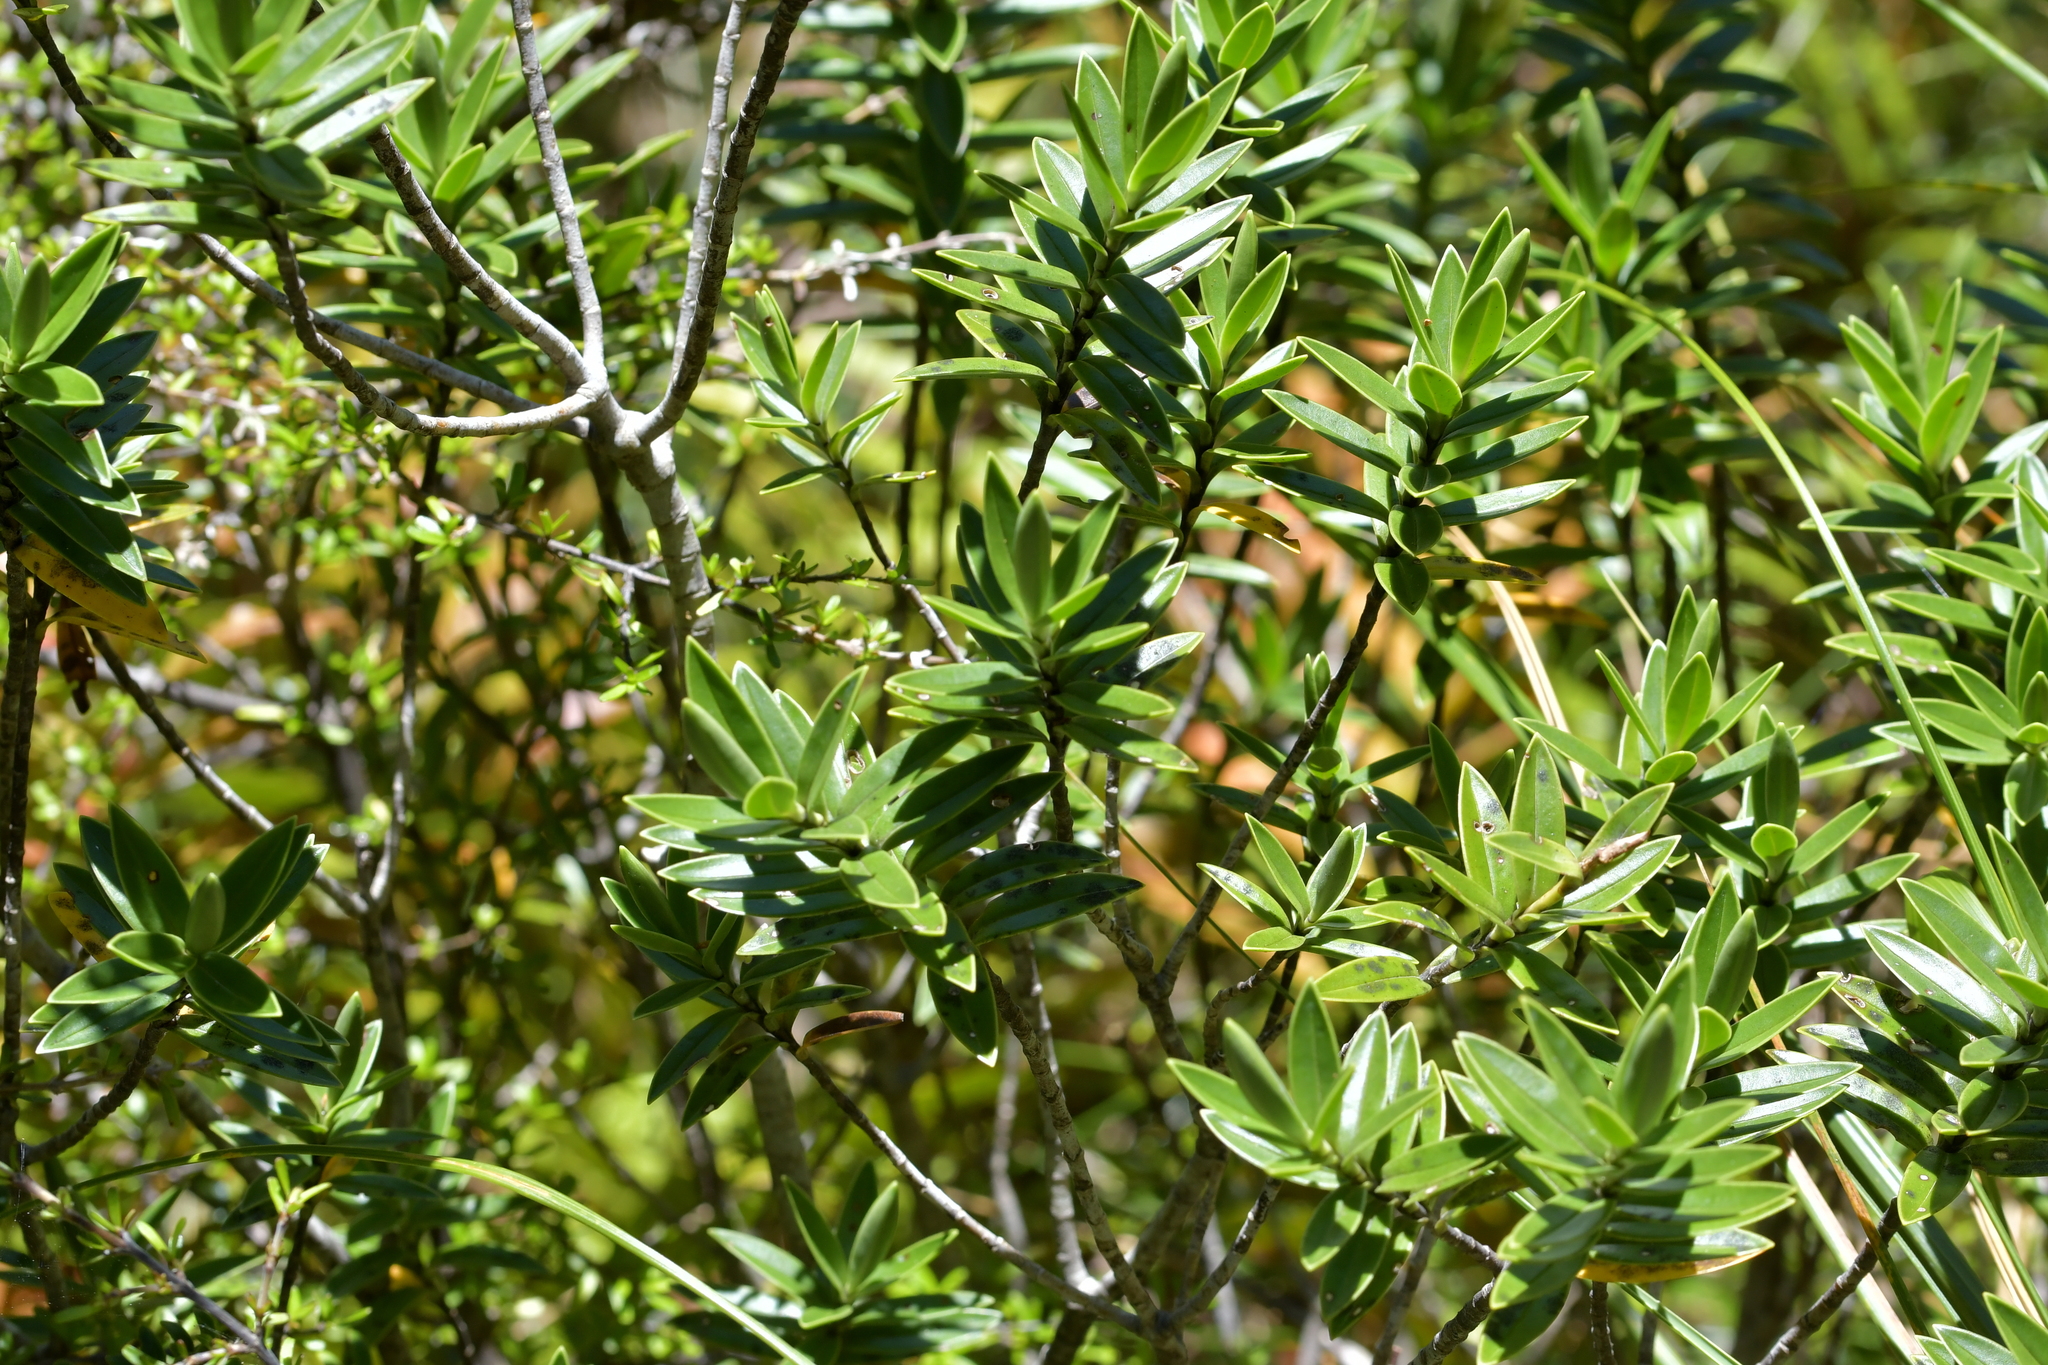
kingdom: Plantae
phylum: Tracheophyta
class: Magnoliopsida
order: Lamiales
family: Plantaginaceae
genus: Veronica
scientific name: Veronica subalpina
